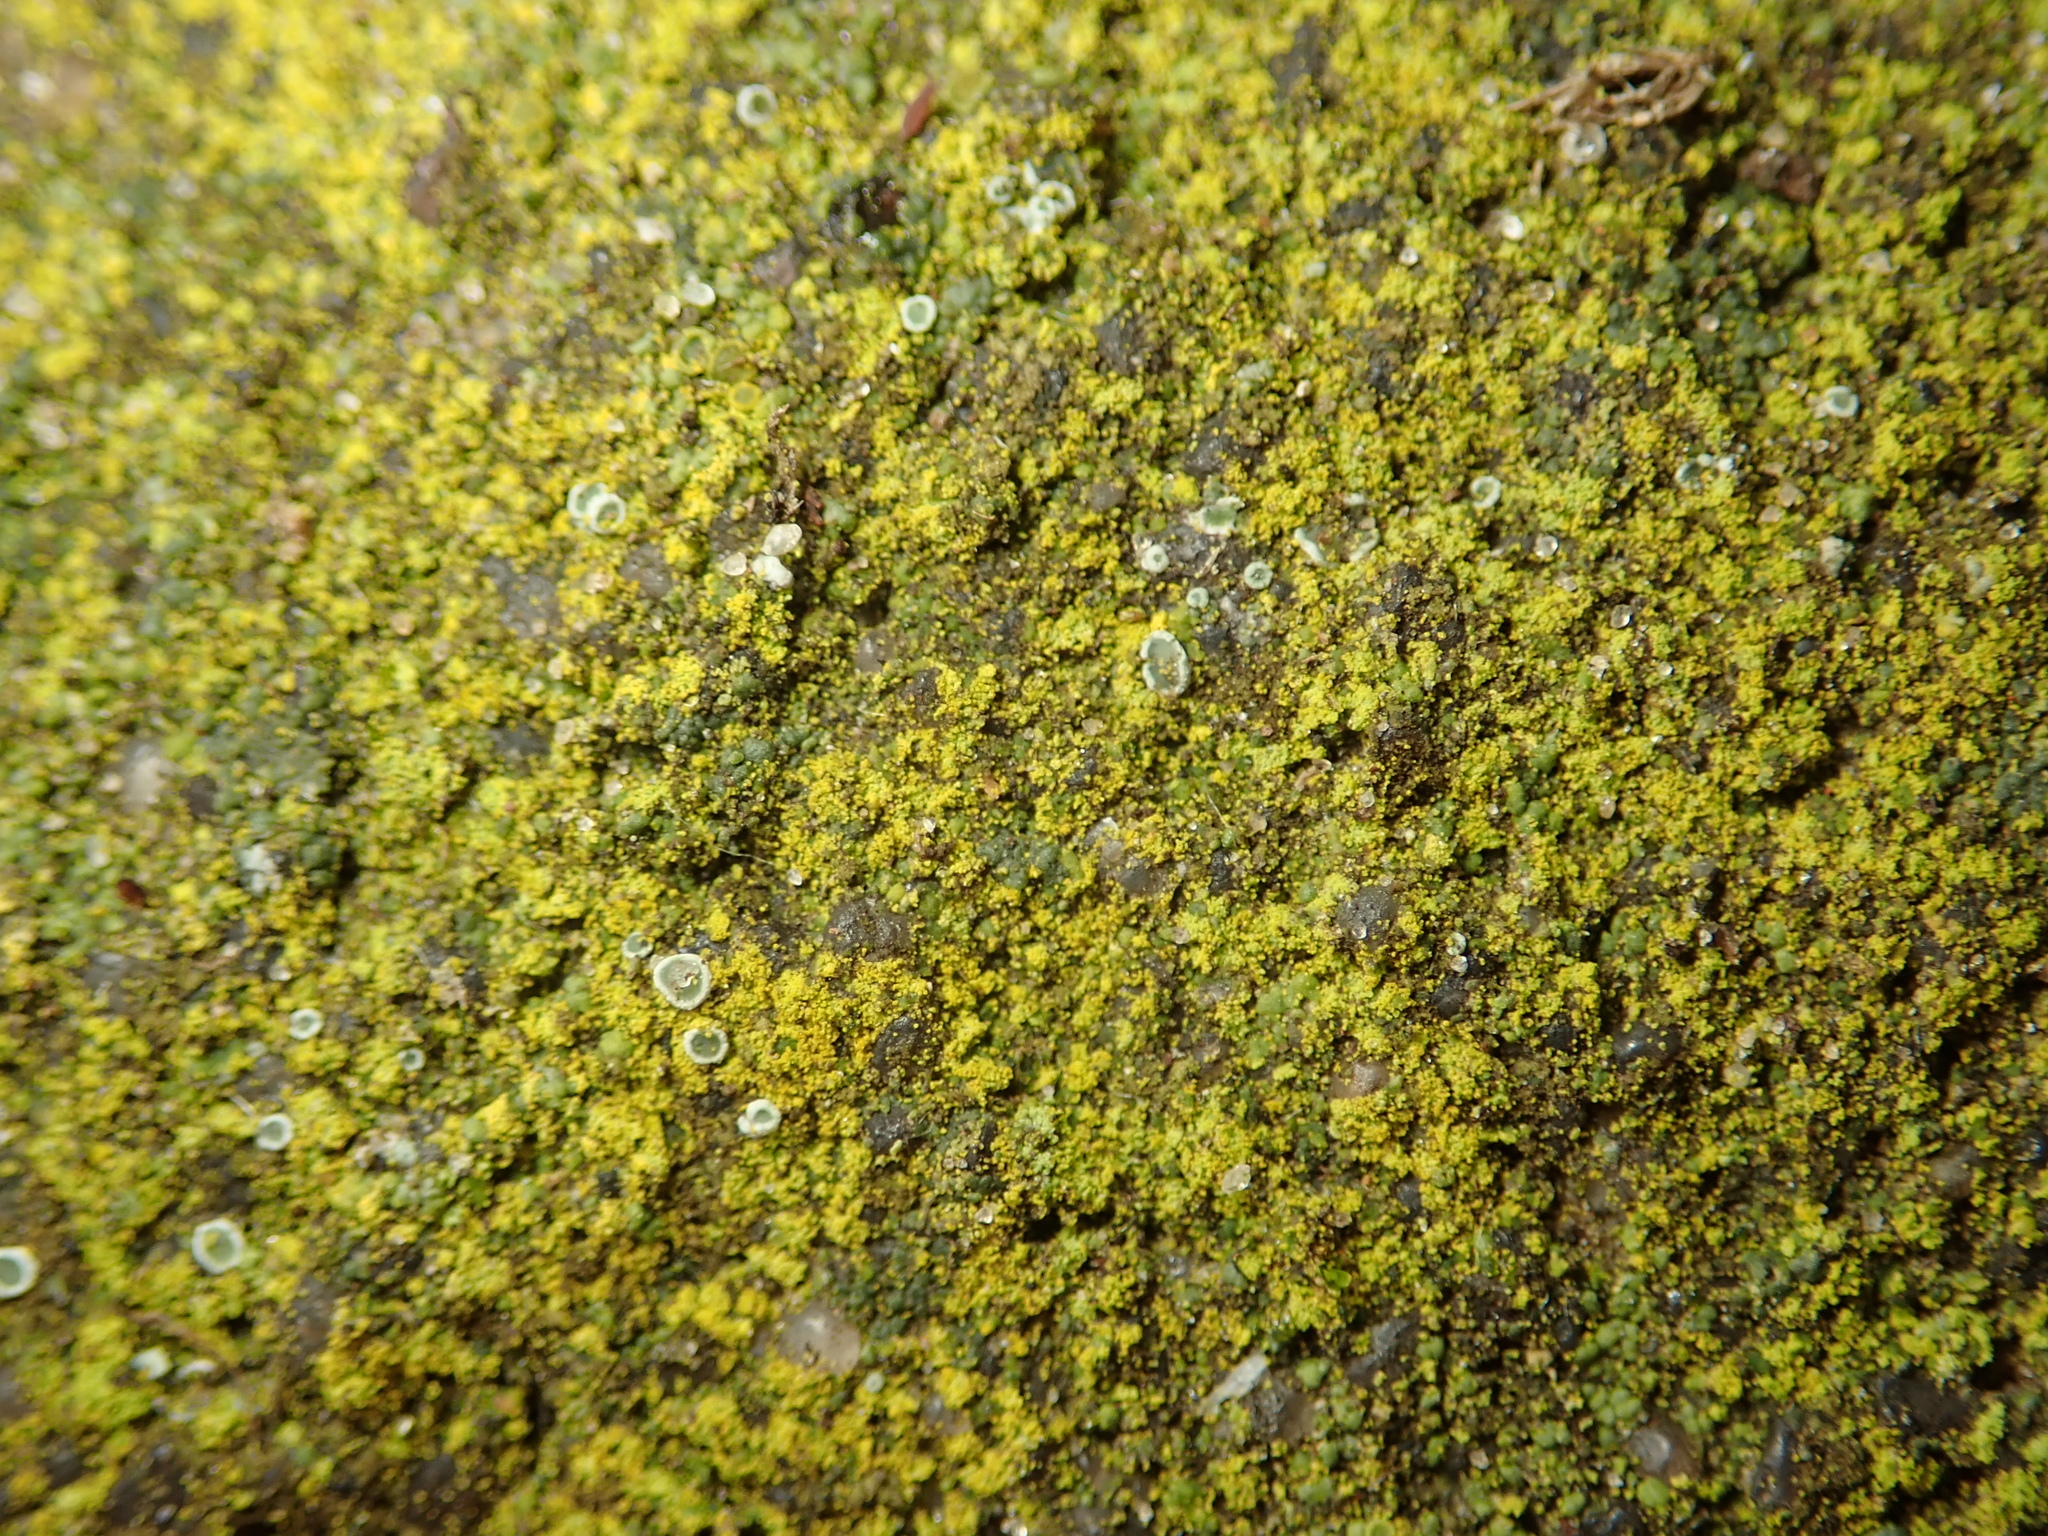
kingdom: Fungi
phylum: Ascomycota
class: Lecanoromycetes
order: Teloschistales
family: Teloschistaceae
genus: Flavoplaca
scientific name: Flavoplaca
